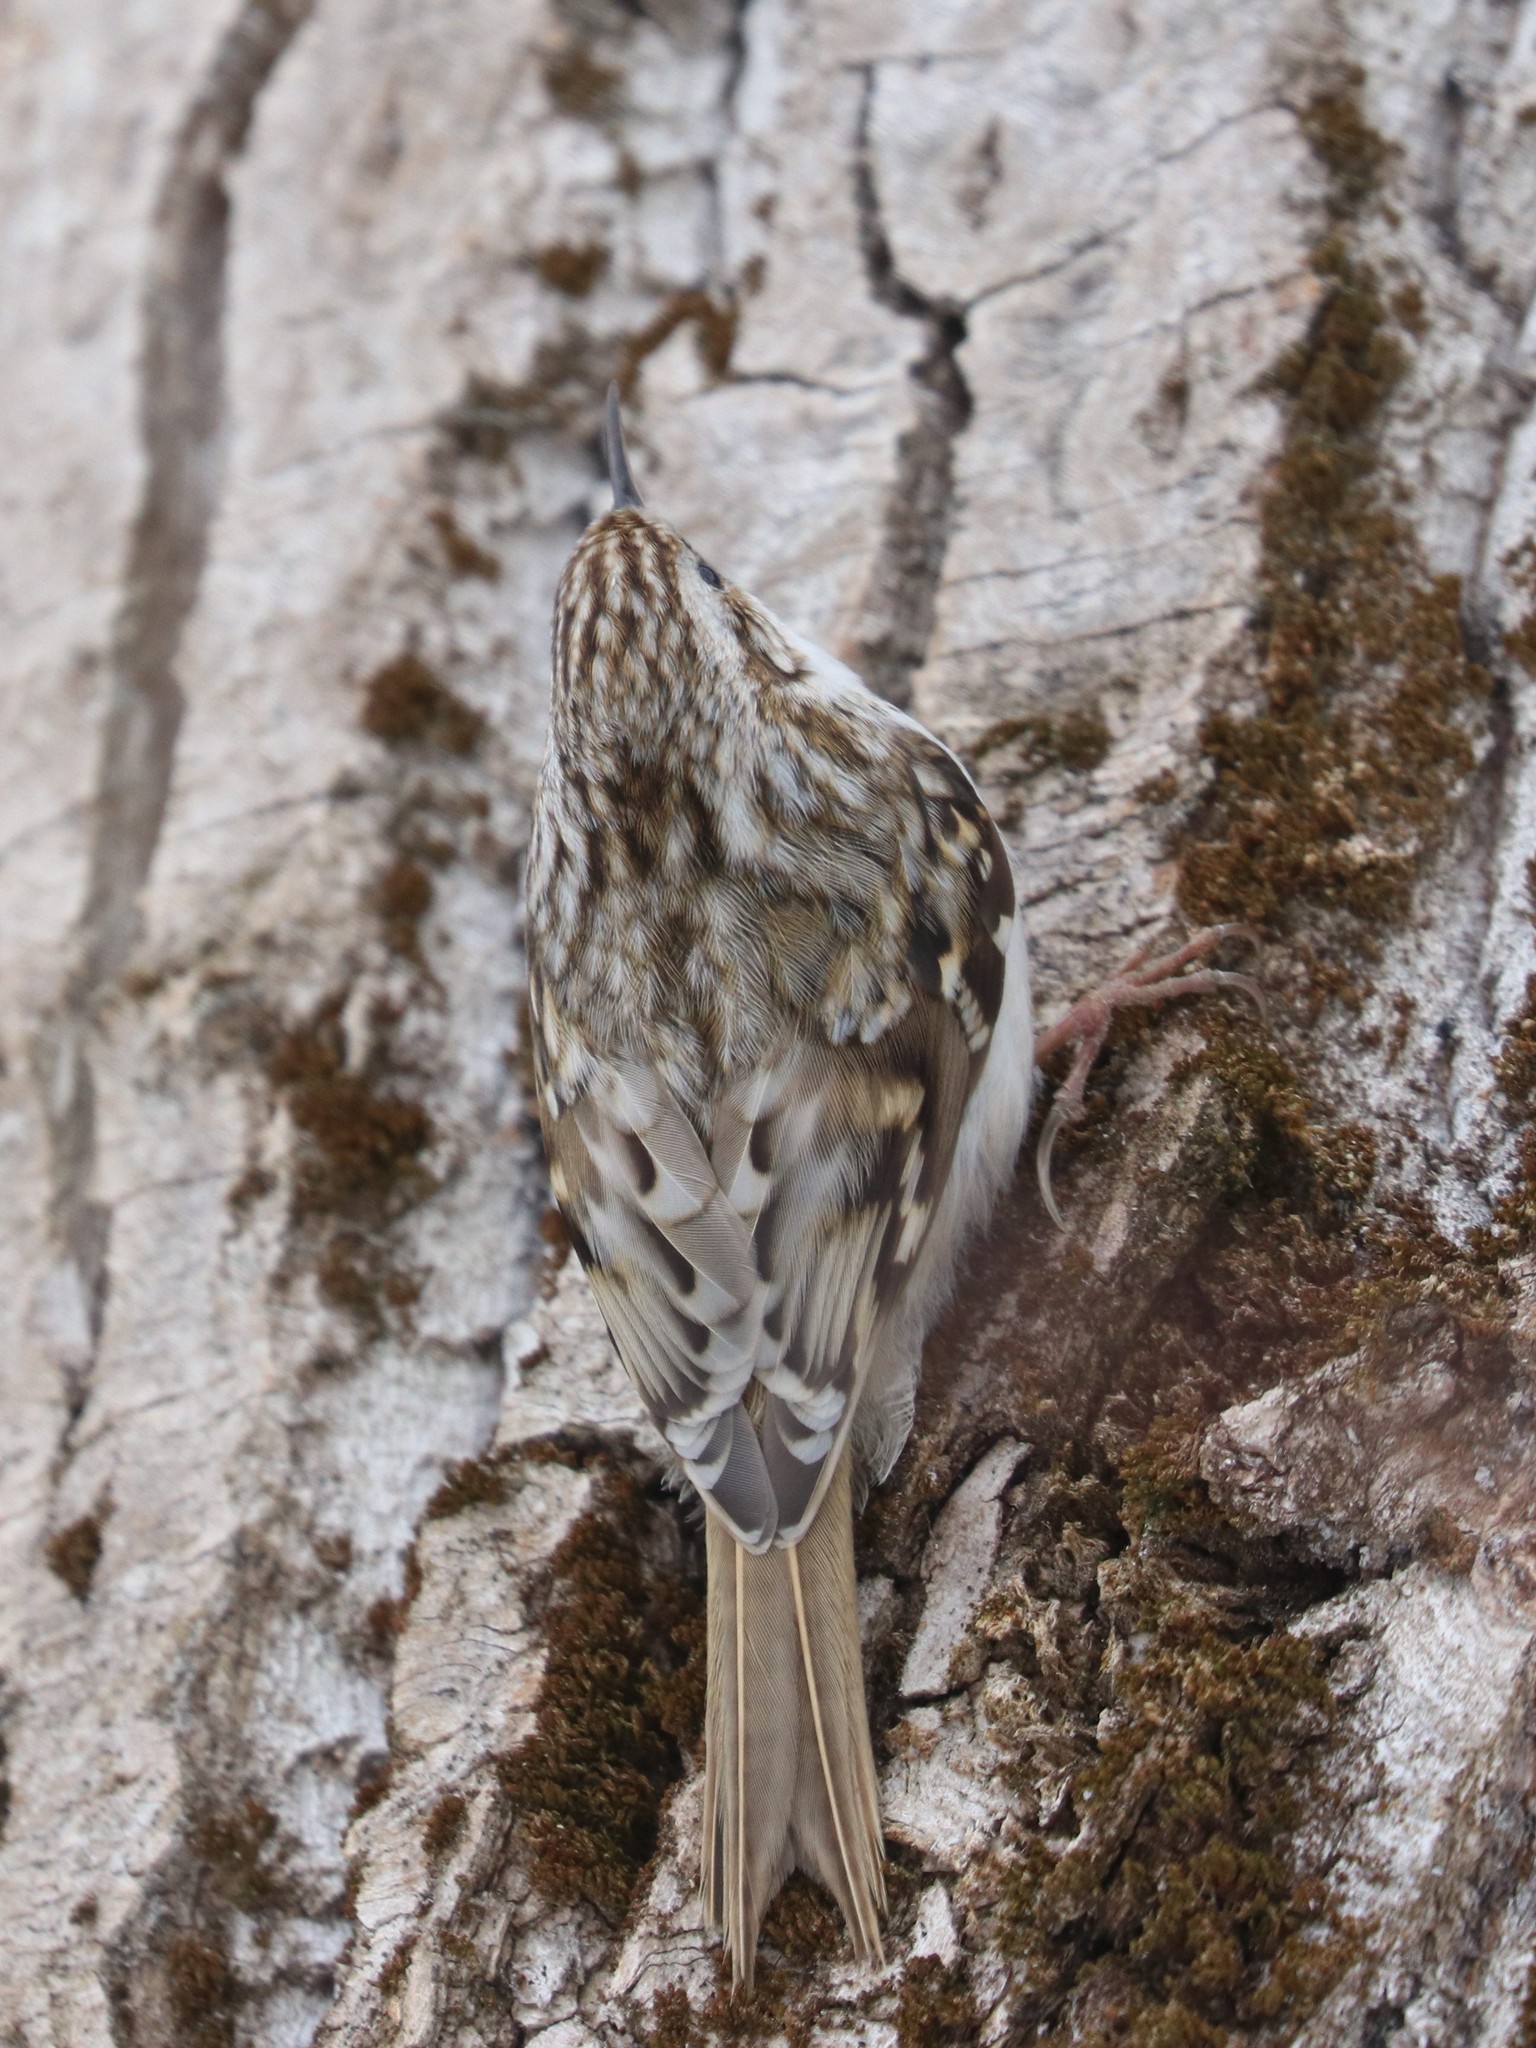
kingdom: Animalia
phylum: Chordata
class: Aves
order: Passeriformes
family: Certhiidae
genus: Certhia
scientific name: Certhia familiaris
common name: Eurasian treecreeper
